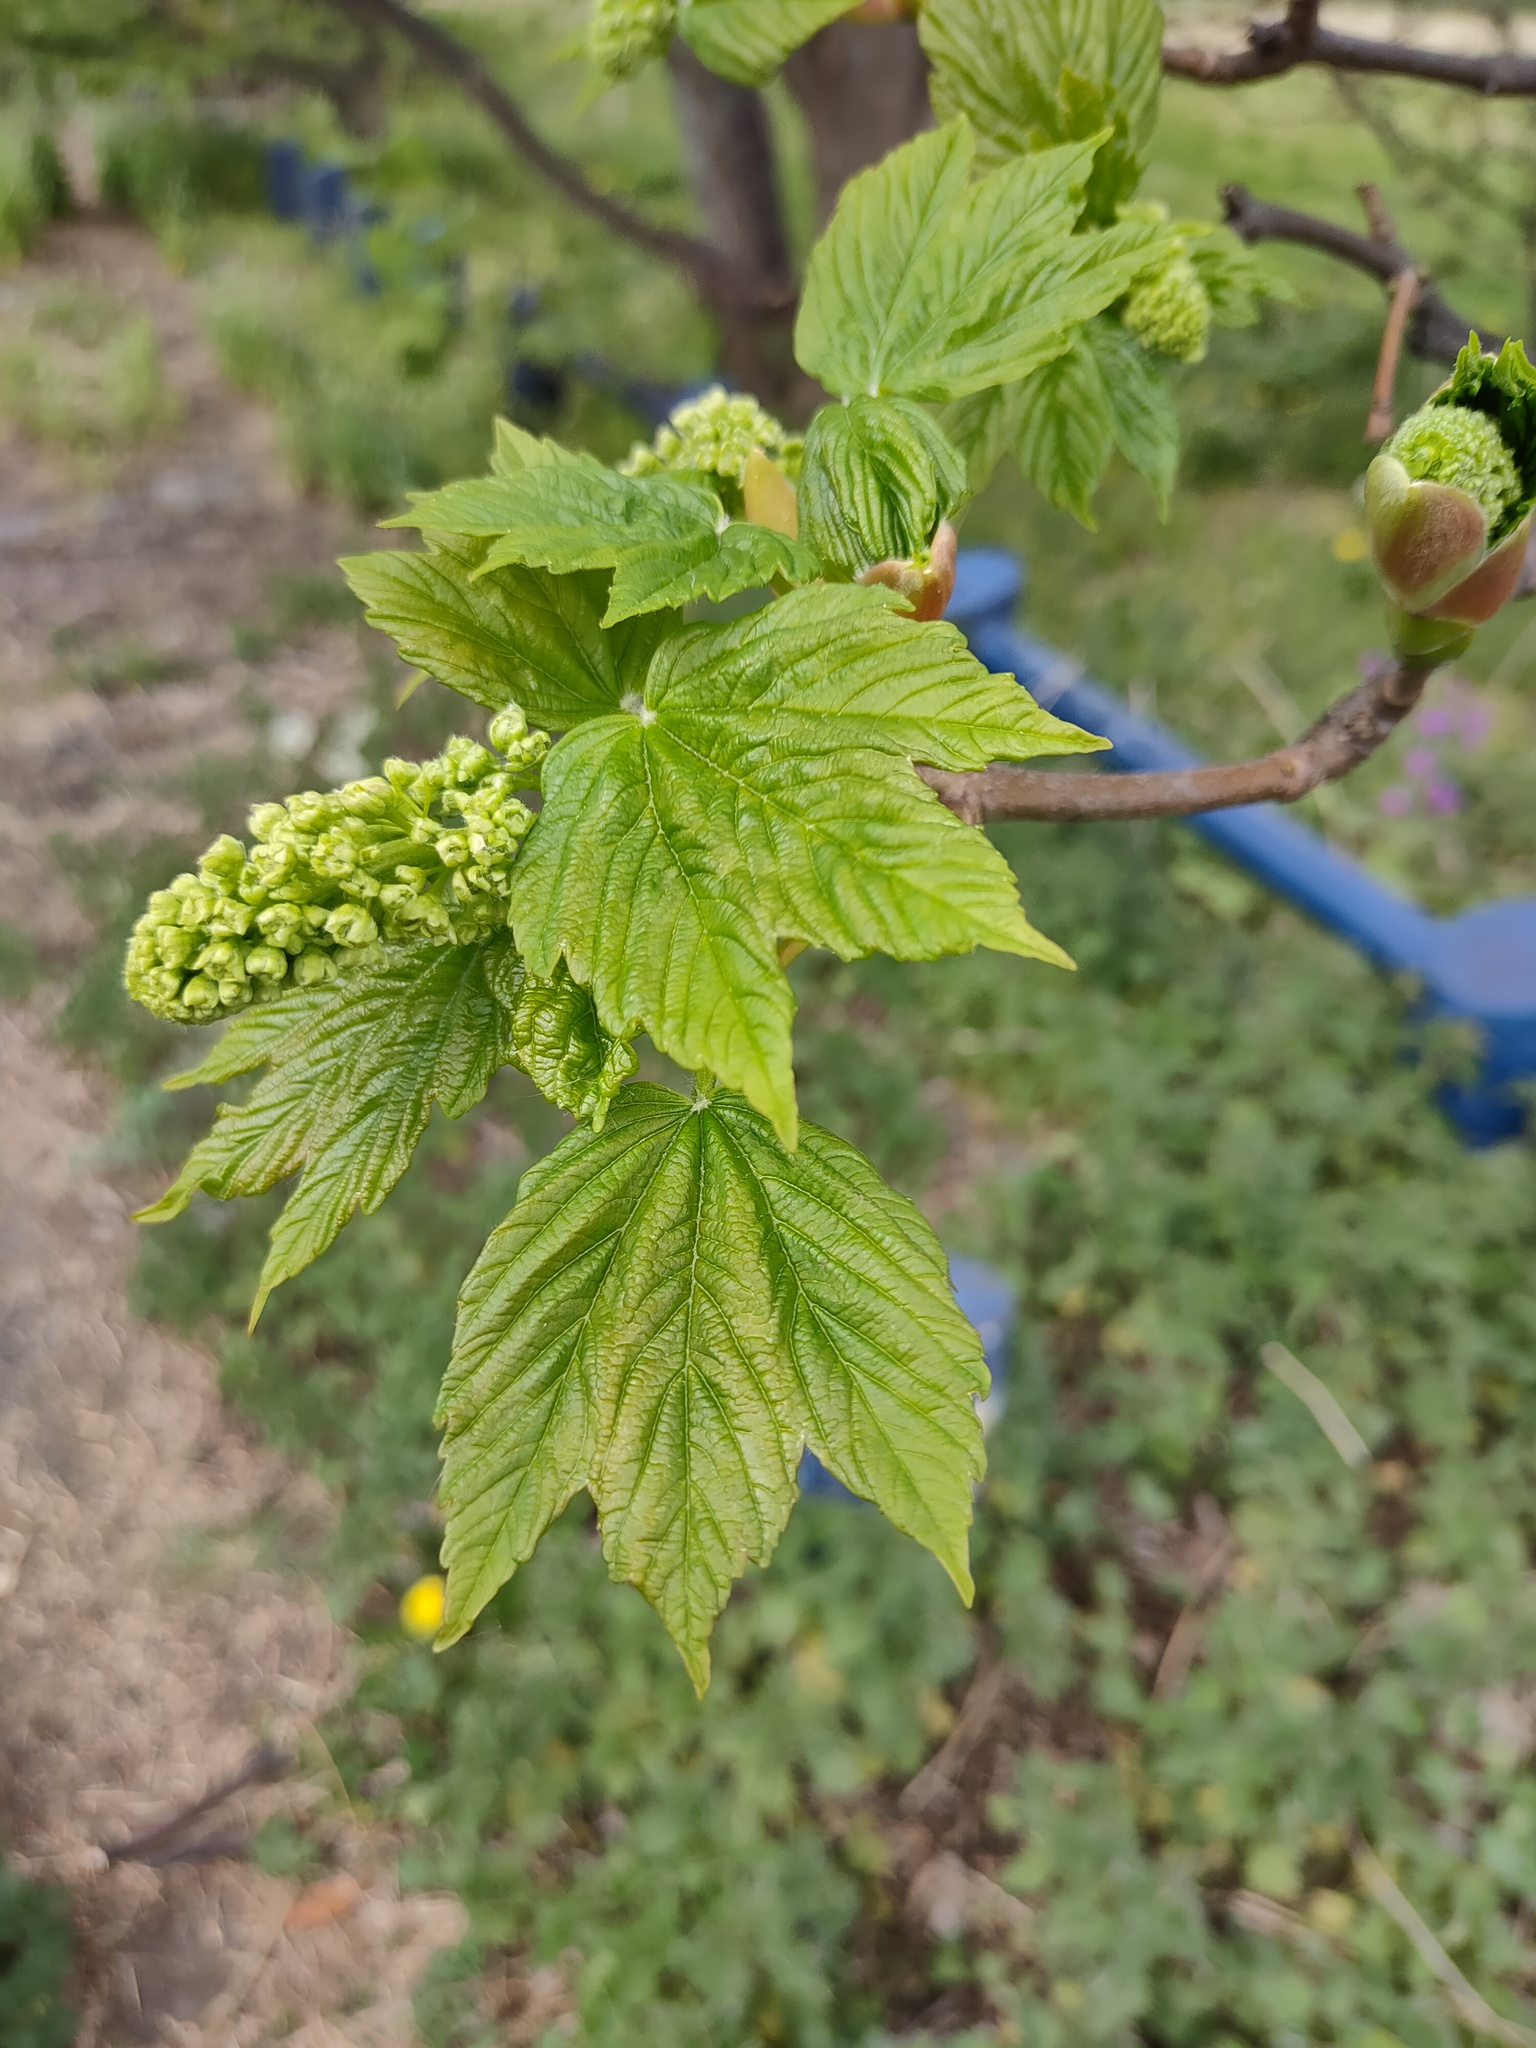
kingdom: Plantae
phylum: Tracheophyta
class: Magnoliopsida
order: Sapindales
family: Sapindaceae
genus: Acer
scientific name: Acer pseudoplatanus
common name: Sycamore
